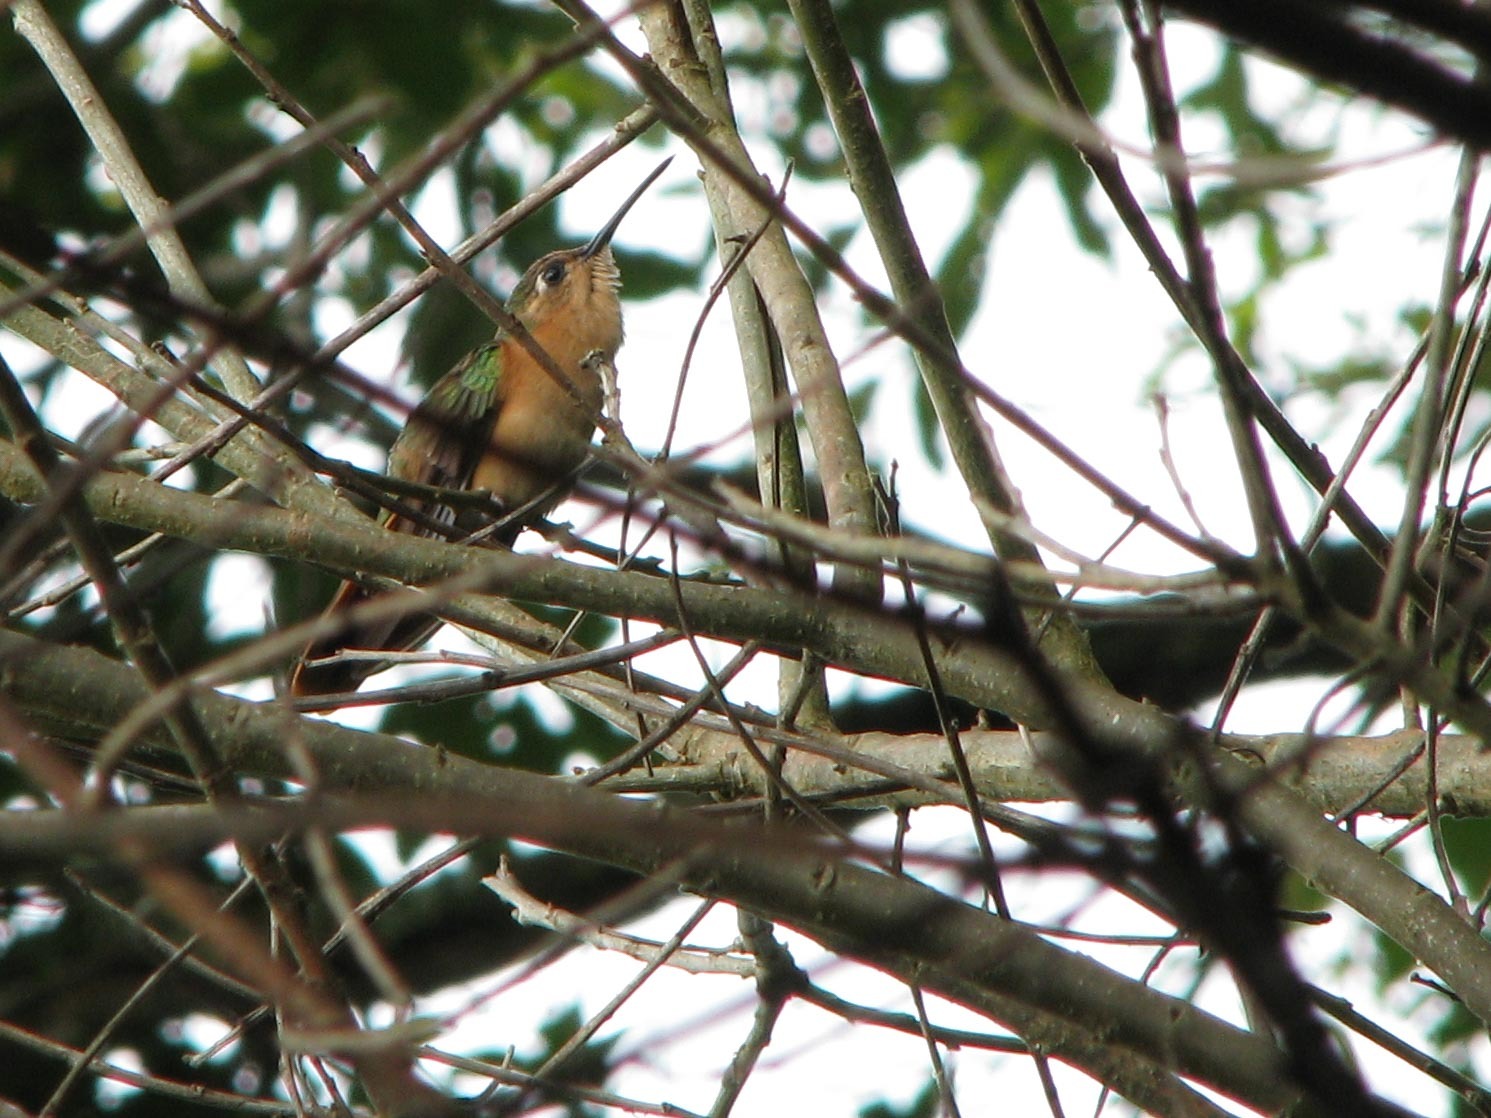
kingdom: Animalia
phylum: Chordata
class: Aves
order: Apodiformes
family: Trochilidae
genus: Pampa
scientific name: Pampa rufa
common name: Rufous sabrewing
